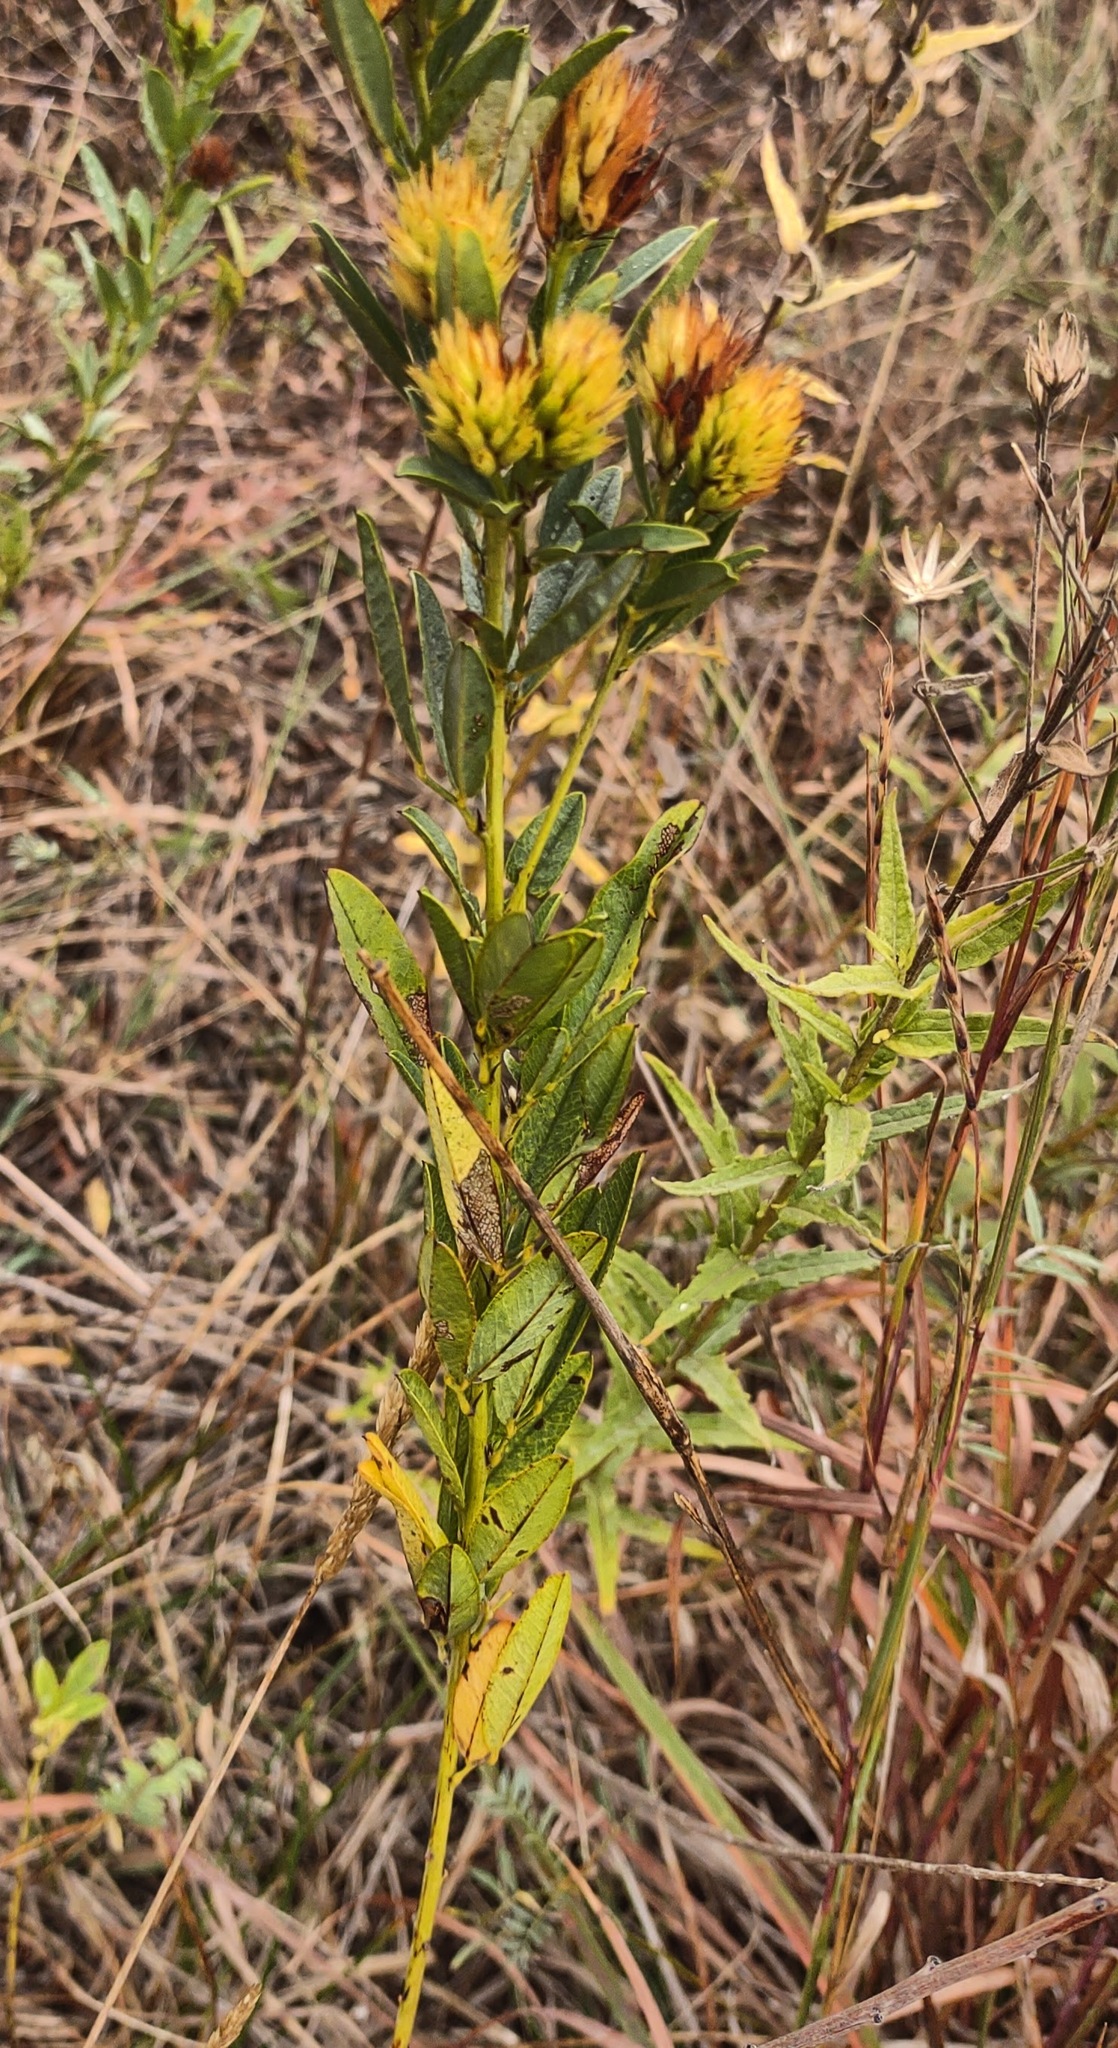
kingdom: Plantae
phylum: Tracheophyta
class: Magnoliopsida
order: Fabales
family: Fabaceae
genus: Lespedeza
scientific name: Lespedeza capitata
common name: Dusty clover
